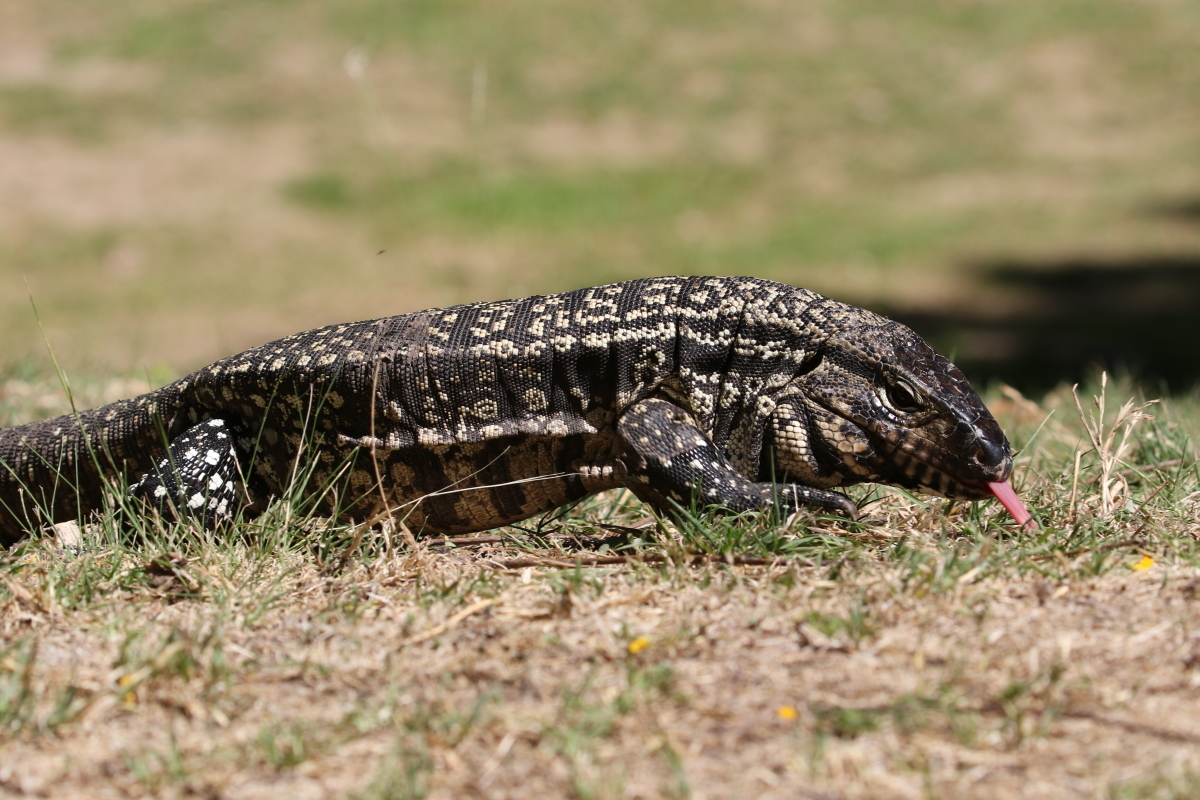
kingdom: Animalia
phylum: Chordata
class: Squamata
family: Teiidae
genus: Salvator
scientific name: Salvator merianae
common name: Argentine black and white tegu
